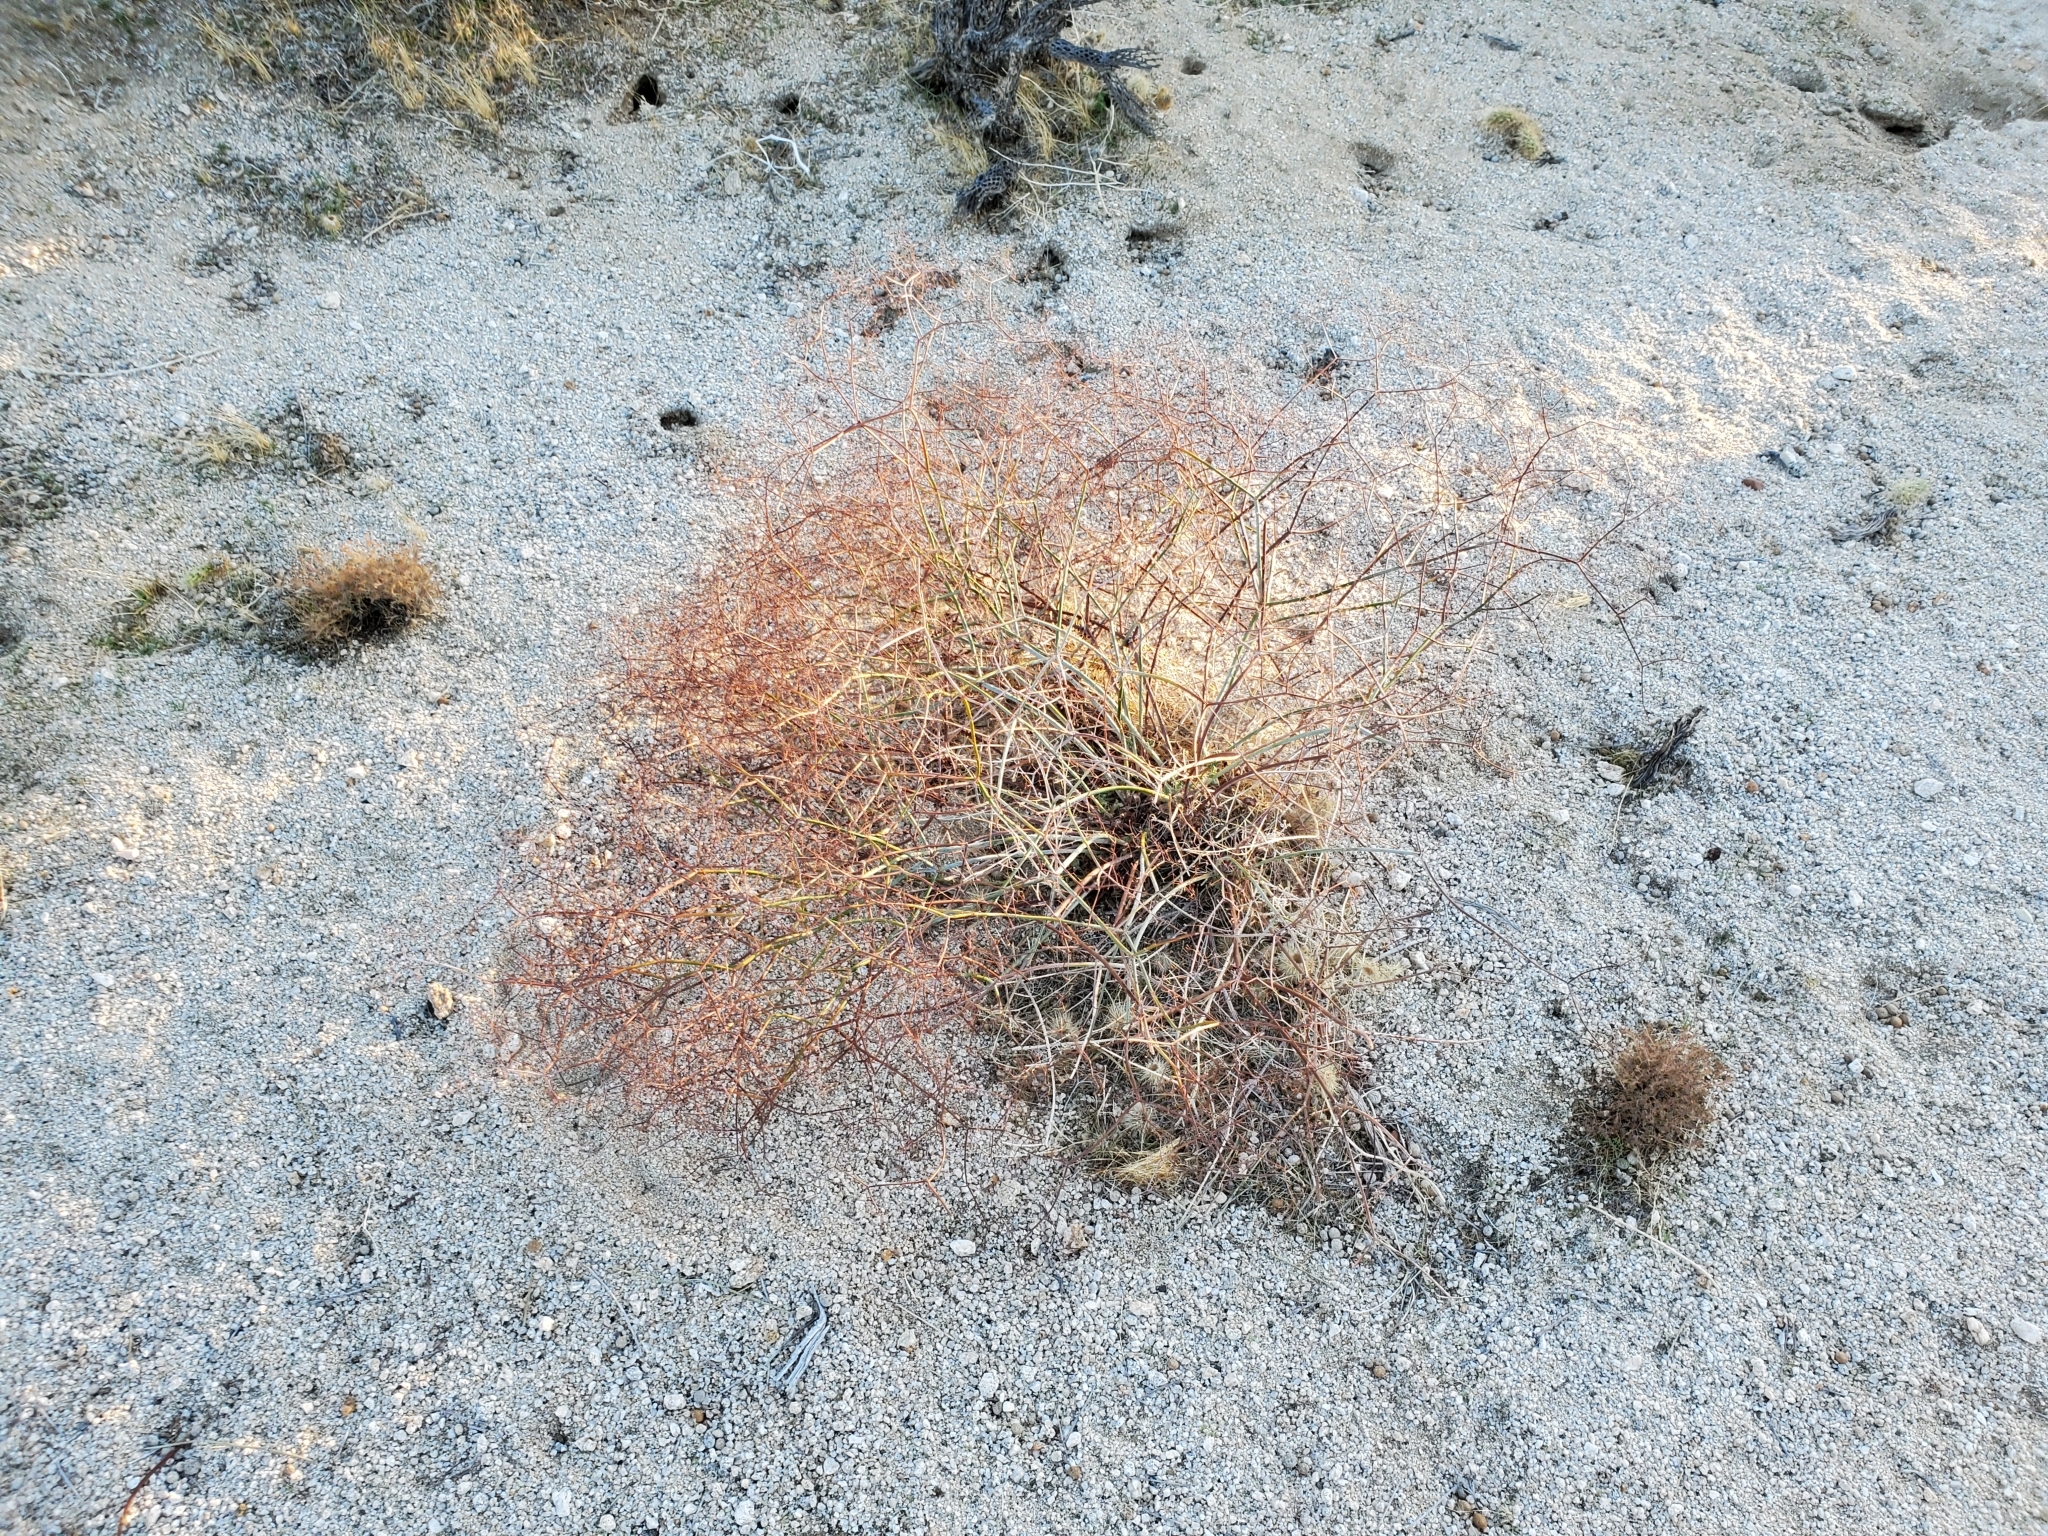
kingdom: Plantae
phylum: Tracheophyta
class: Magnoliopsida
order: Caryophyllales
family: Polygonaceae
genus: Eriogonum
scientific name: Eriogonum inflatum
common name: Desert trumpet
